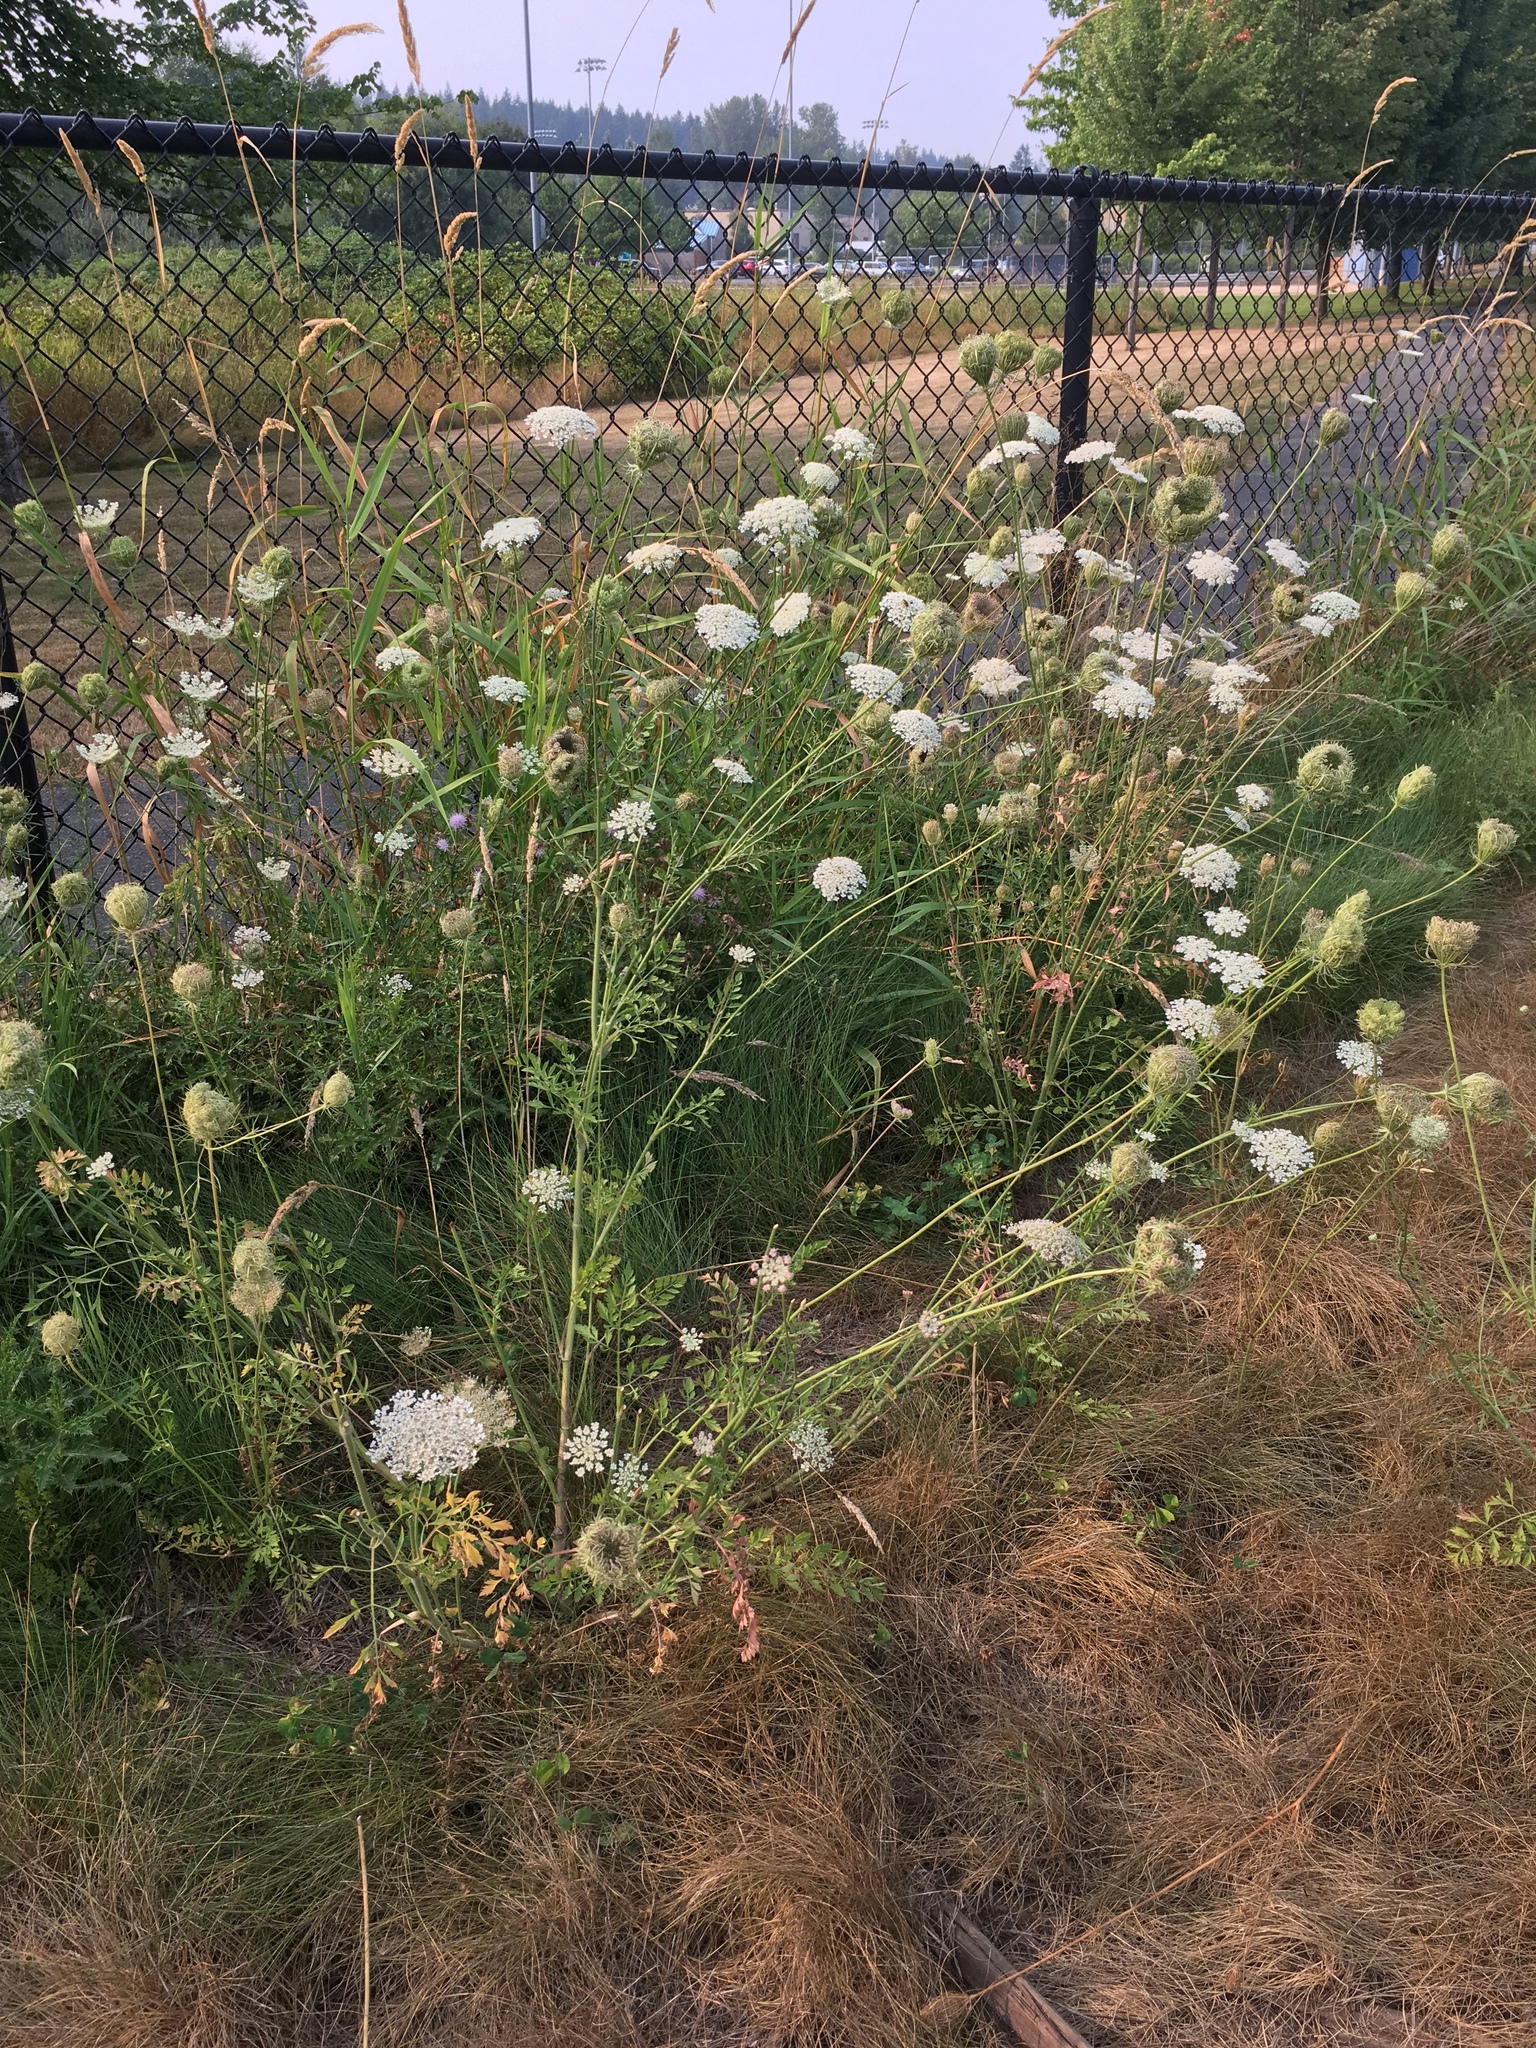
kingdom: Plantae
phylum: Tracheophyta
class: Magnoliopsida
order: Apiales
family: Apiaceae
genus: Daucus
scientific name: Daucus carota
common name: Wild carrot
